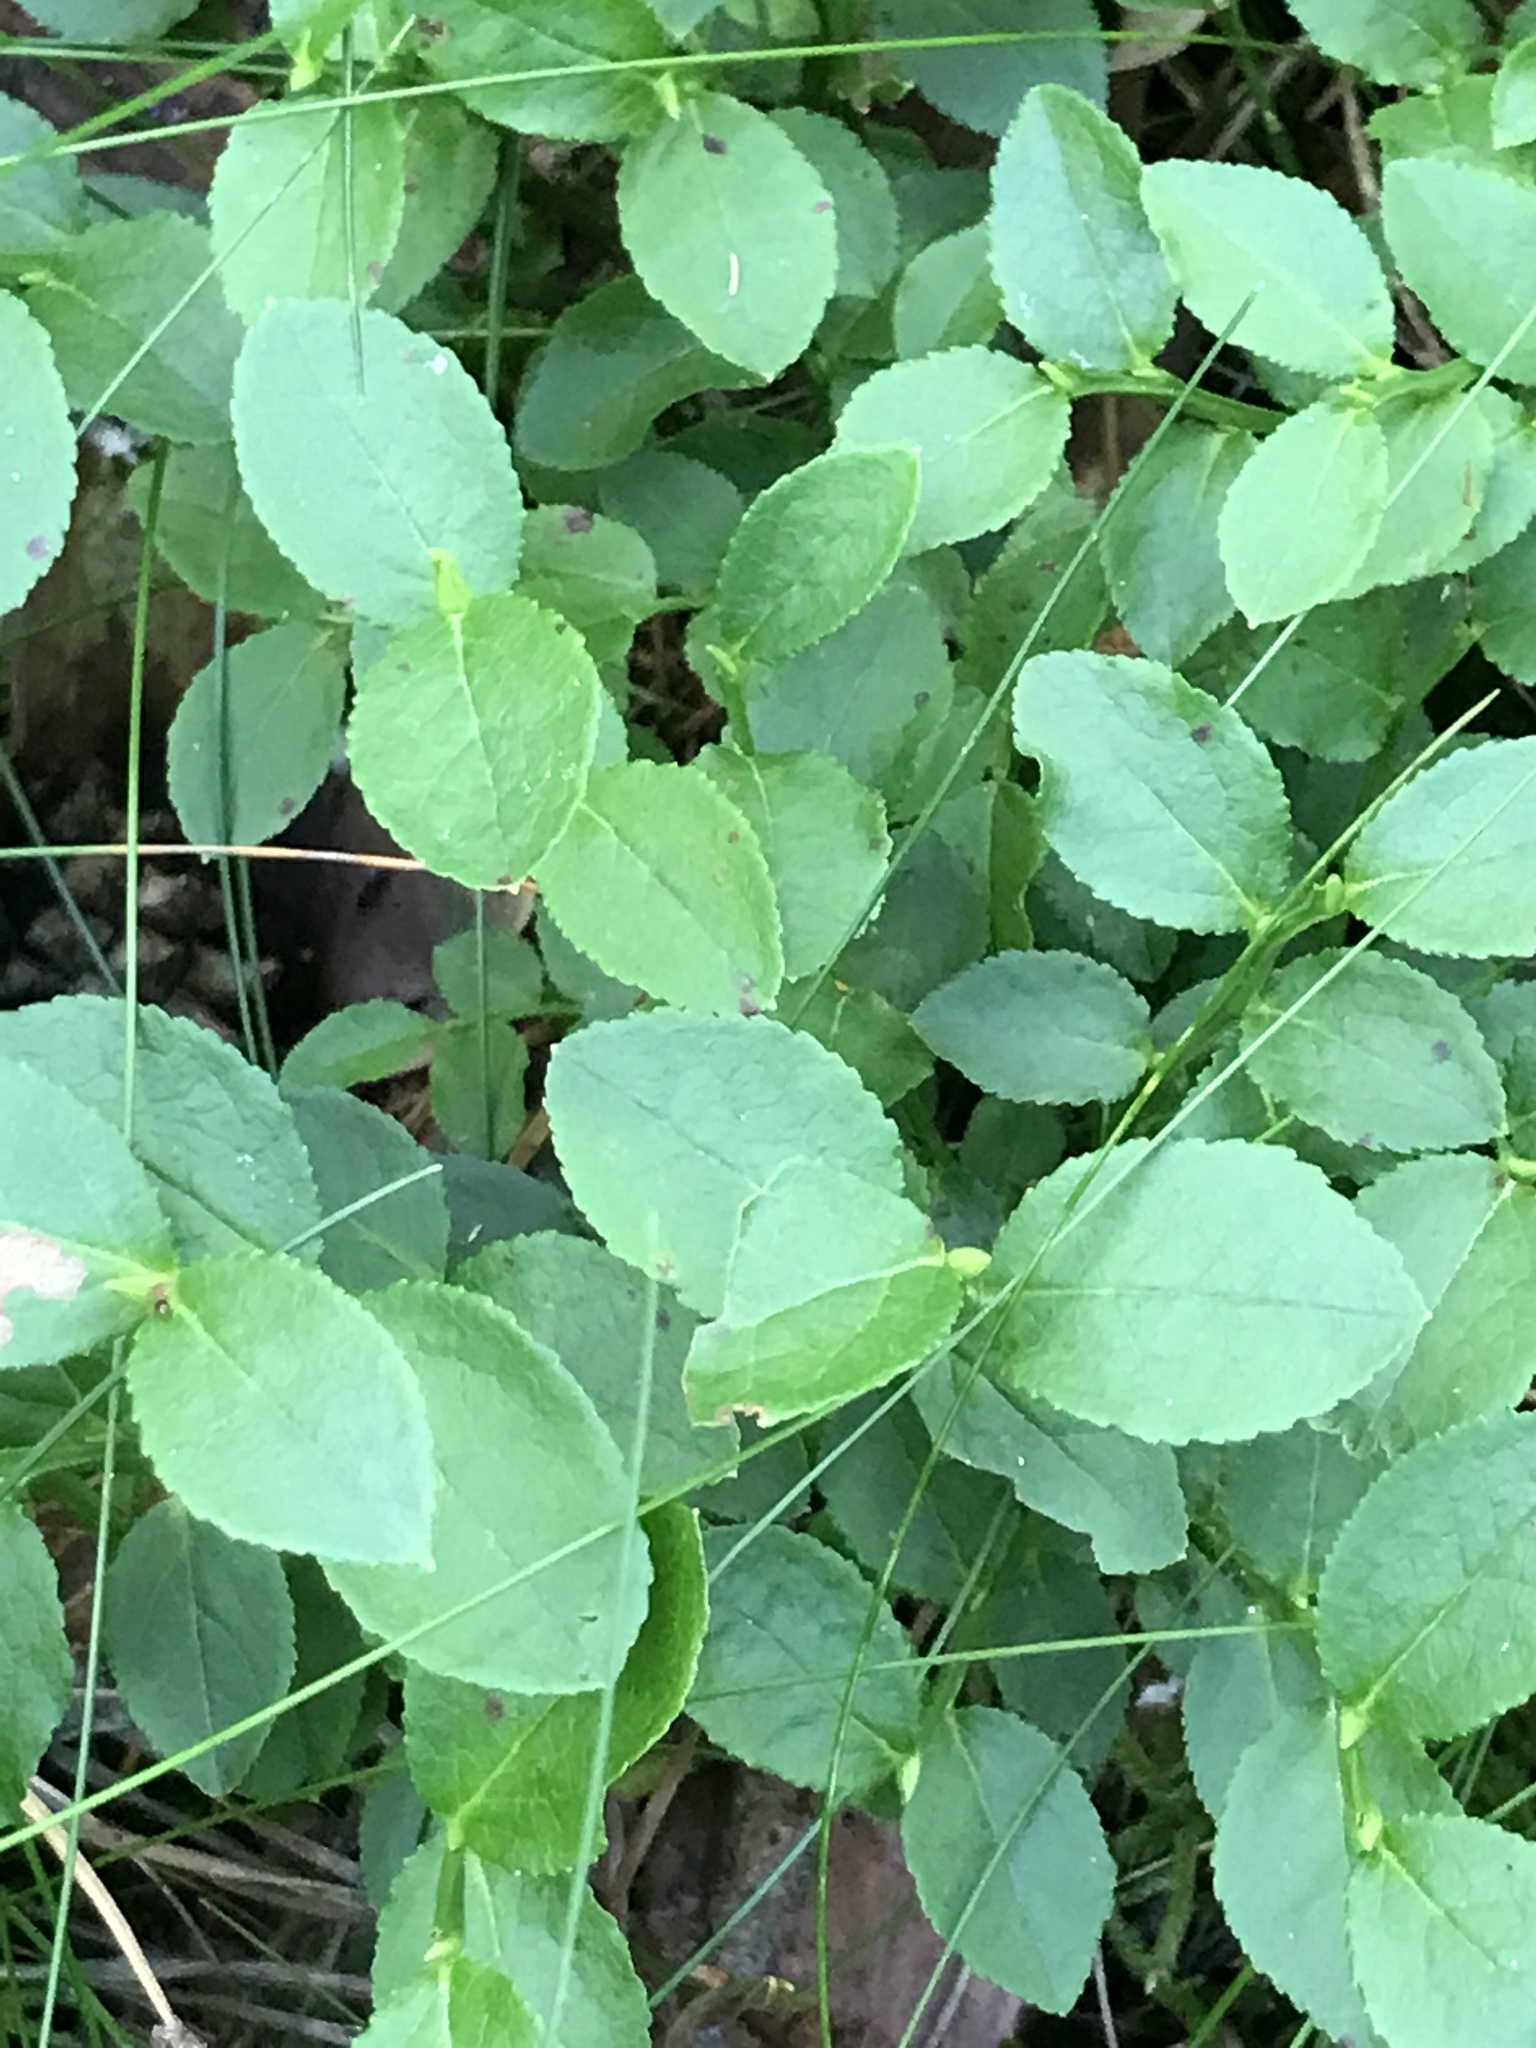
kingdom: Plantae
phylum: Tracheophyta
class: Magnoliopsida
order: Ericales
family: Ericaceae
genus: Vaccinium
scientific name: Vaccinium myrtillus
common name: Bilberry
